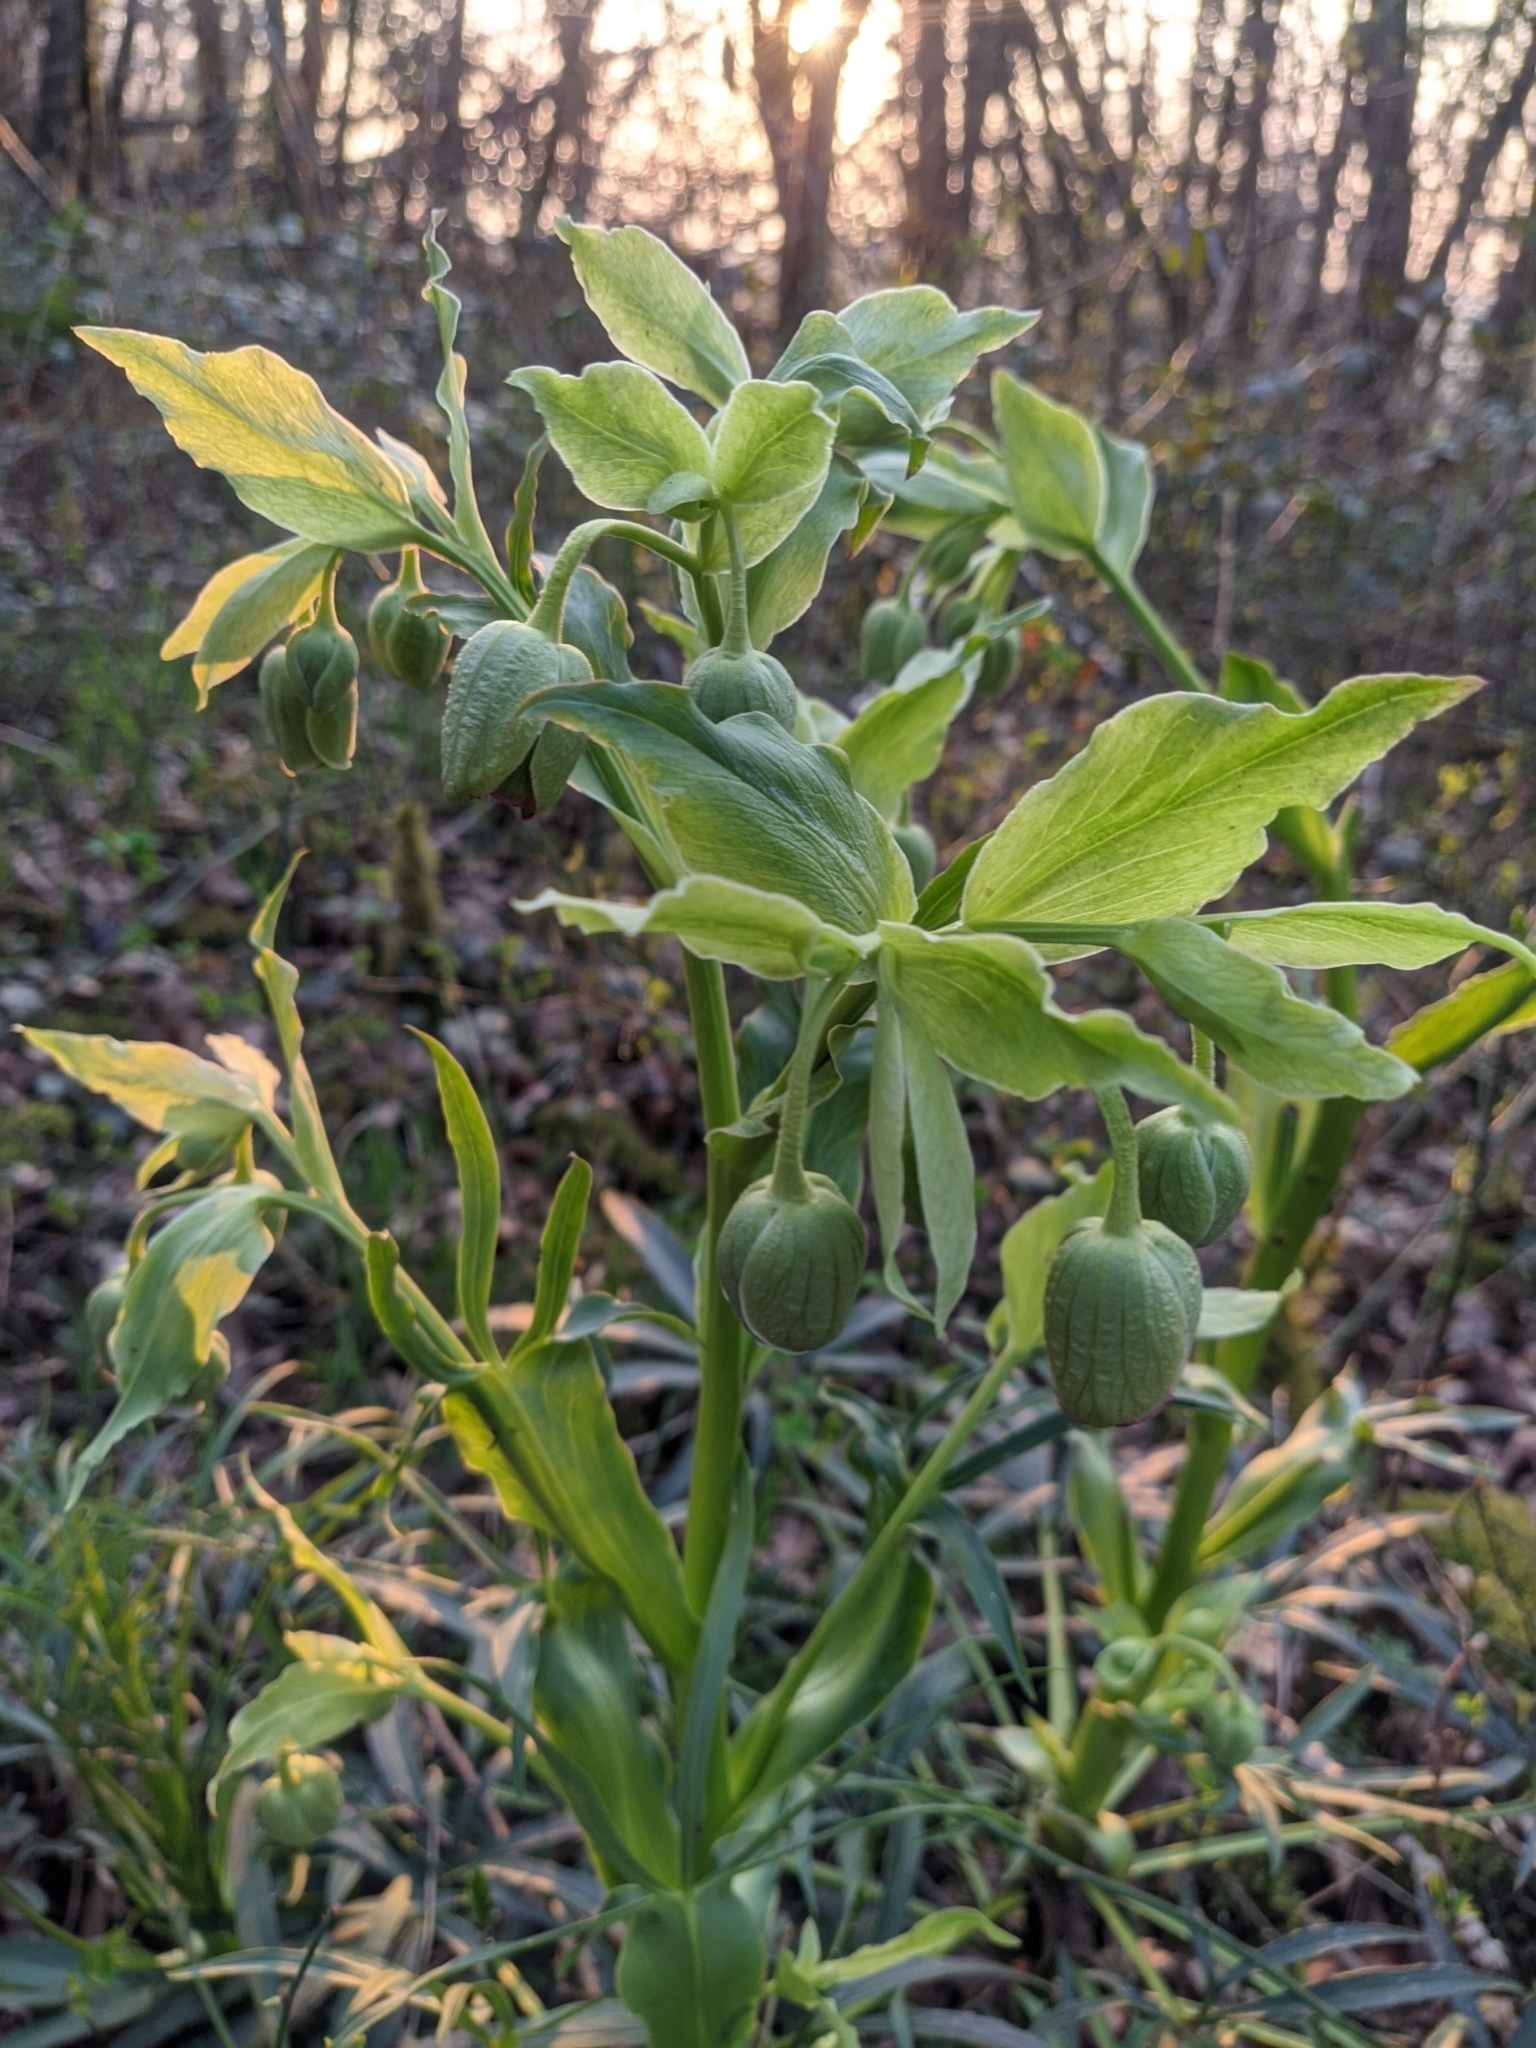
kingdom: Plantae
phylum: Tracheophyta
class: Magnoliopsida
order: Ranunculales
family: Ranunculaceae
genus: Helleborus
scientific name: Helleborus foetidus
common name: Stinking hellebore
